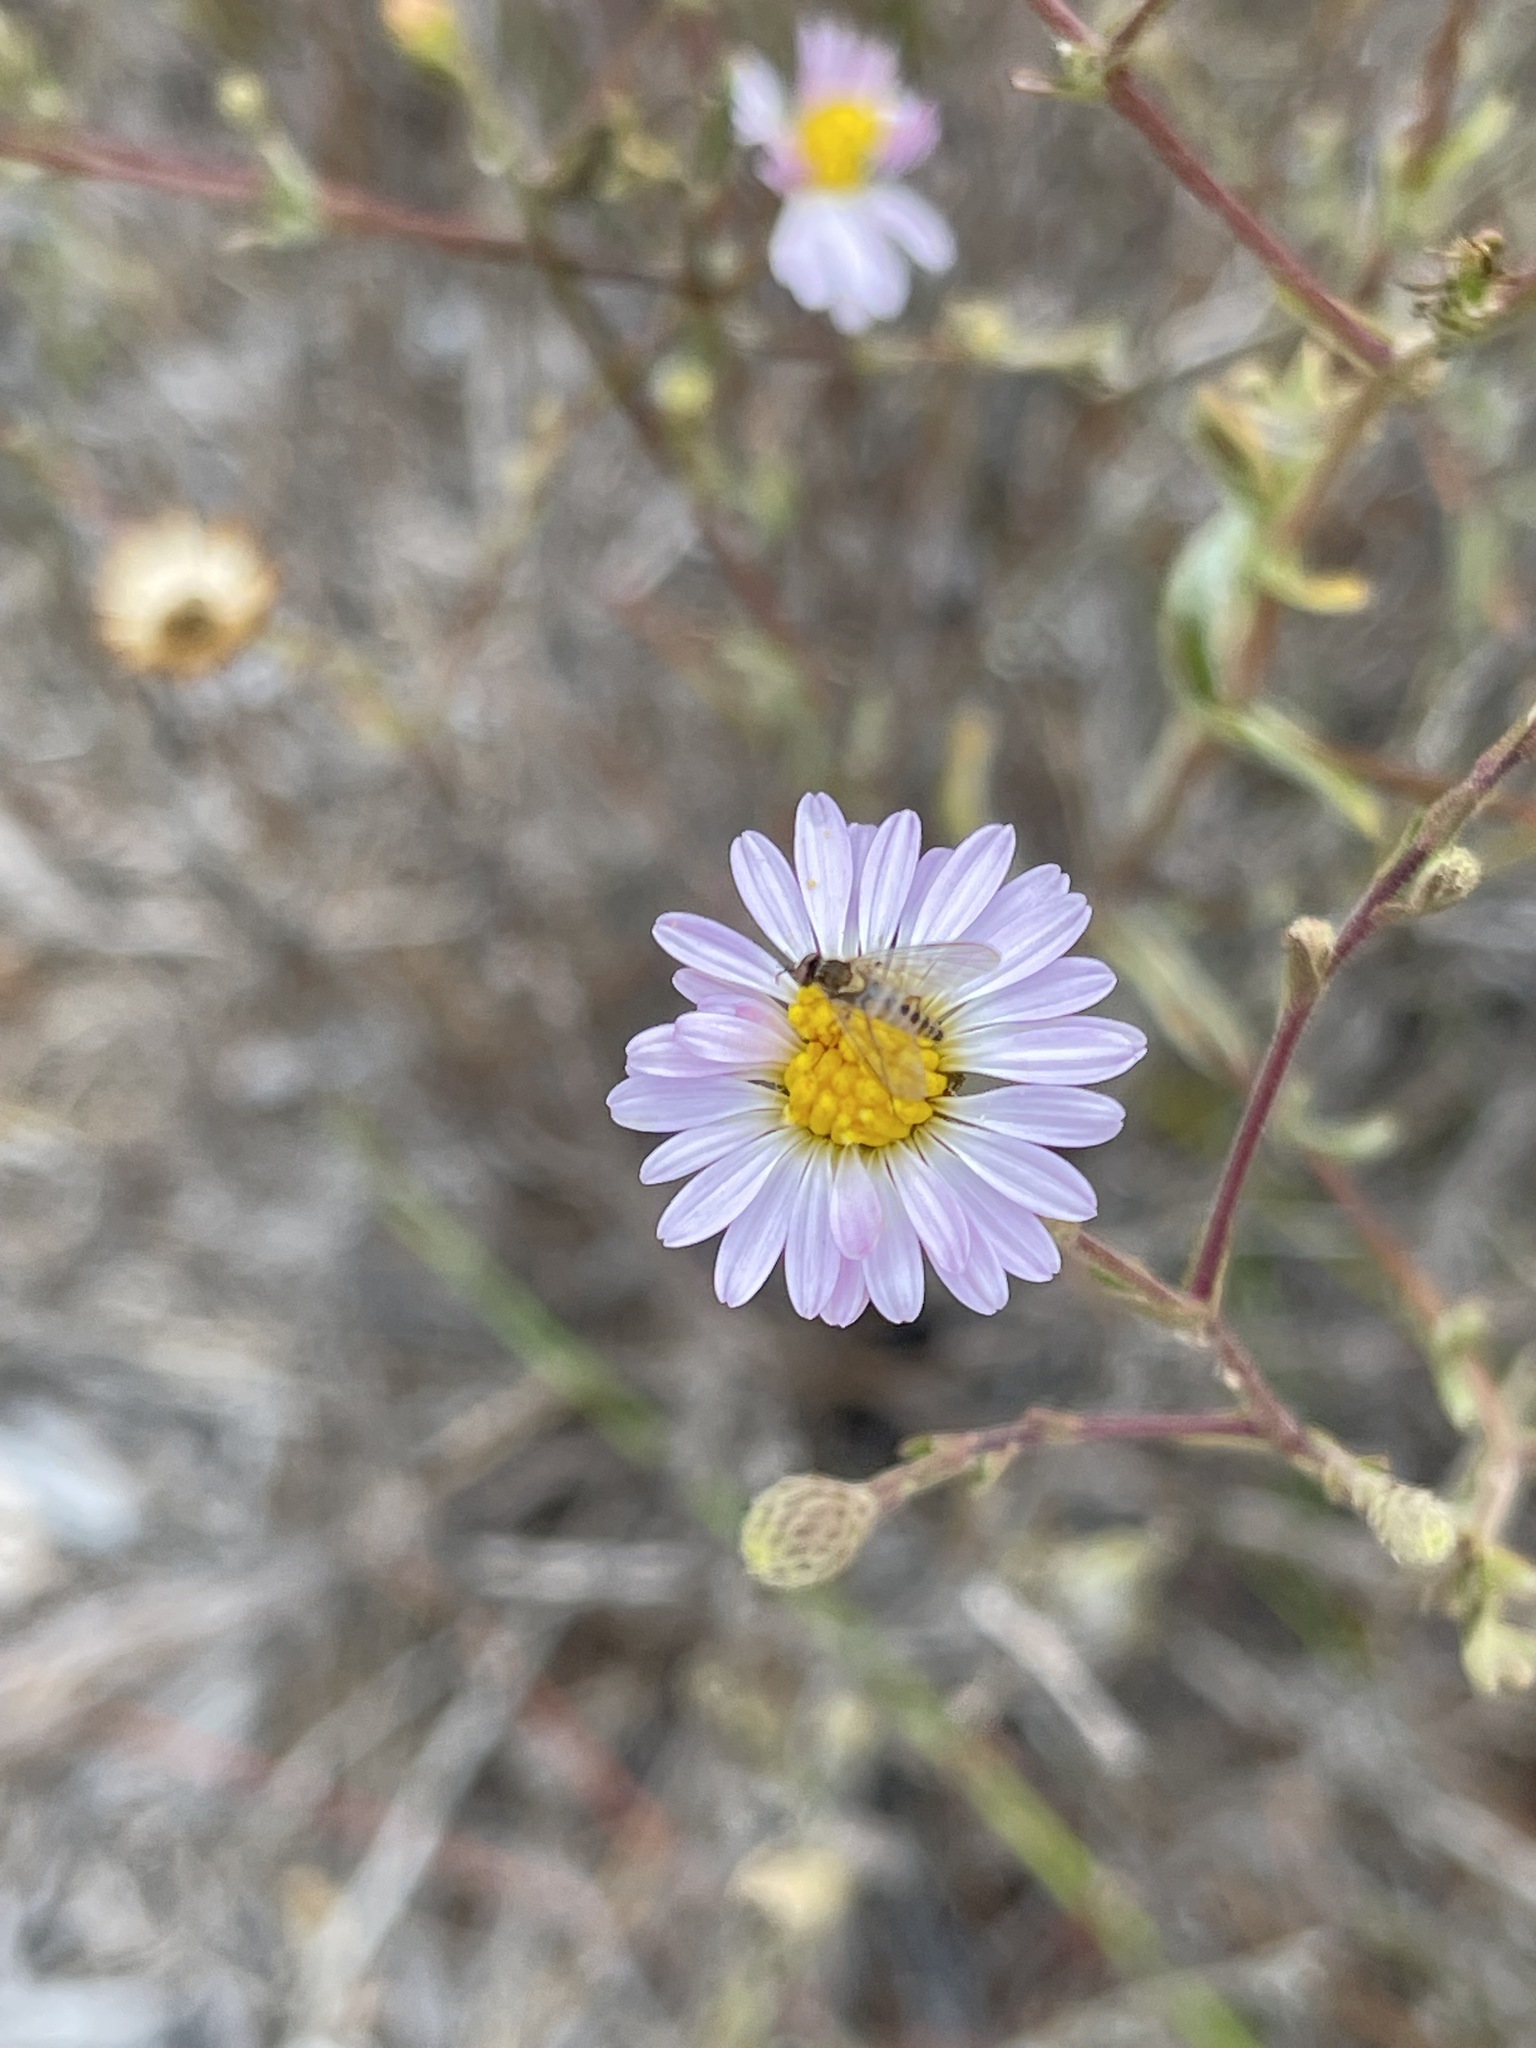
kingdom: Plantae
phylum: Tracheophyta
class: Magnoliopsida
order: Asterales
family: Asteraceae
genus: Corethrogyne
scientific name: Corethrogyne filaginifolia
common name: Sand-aster
